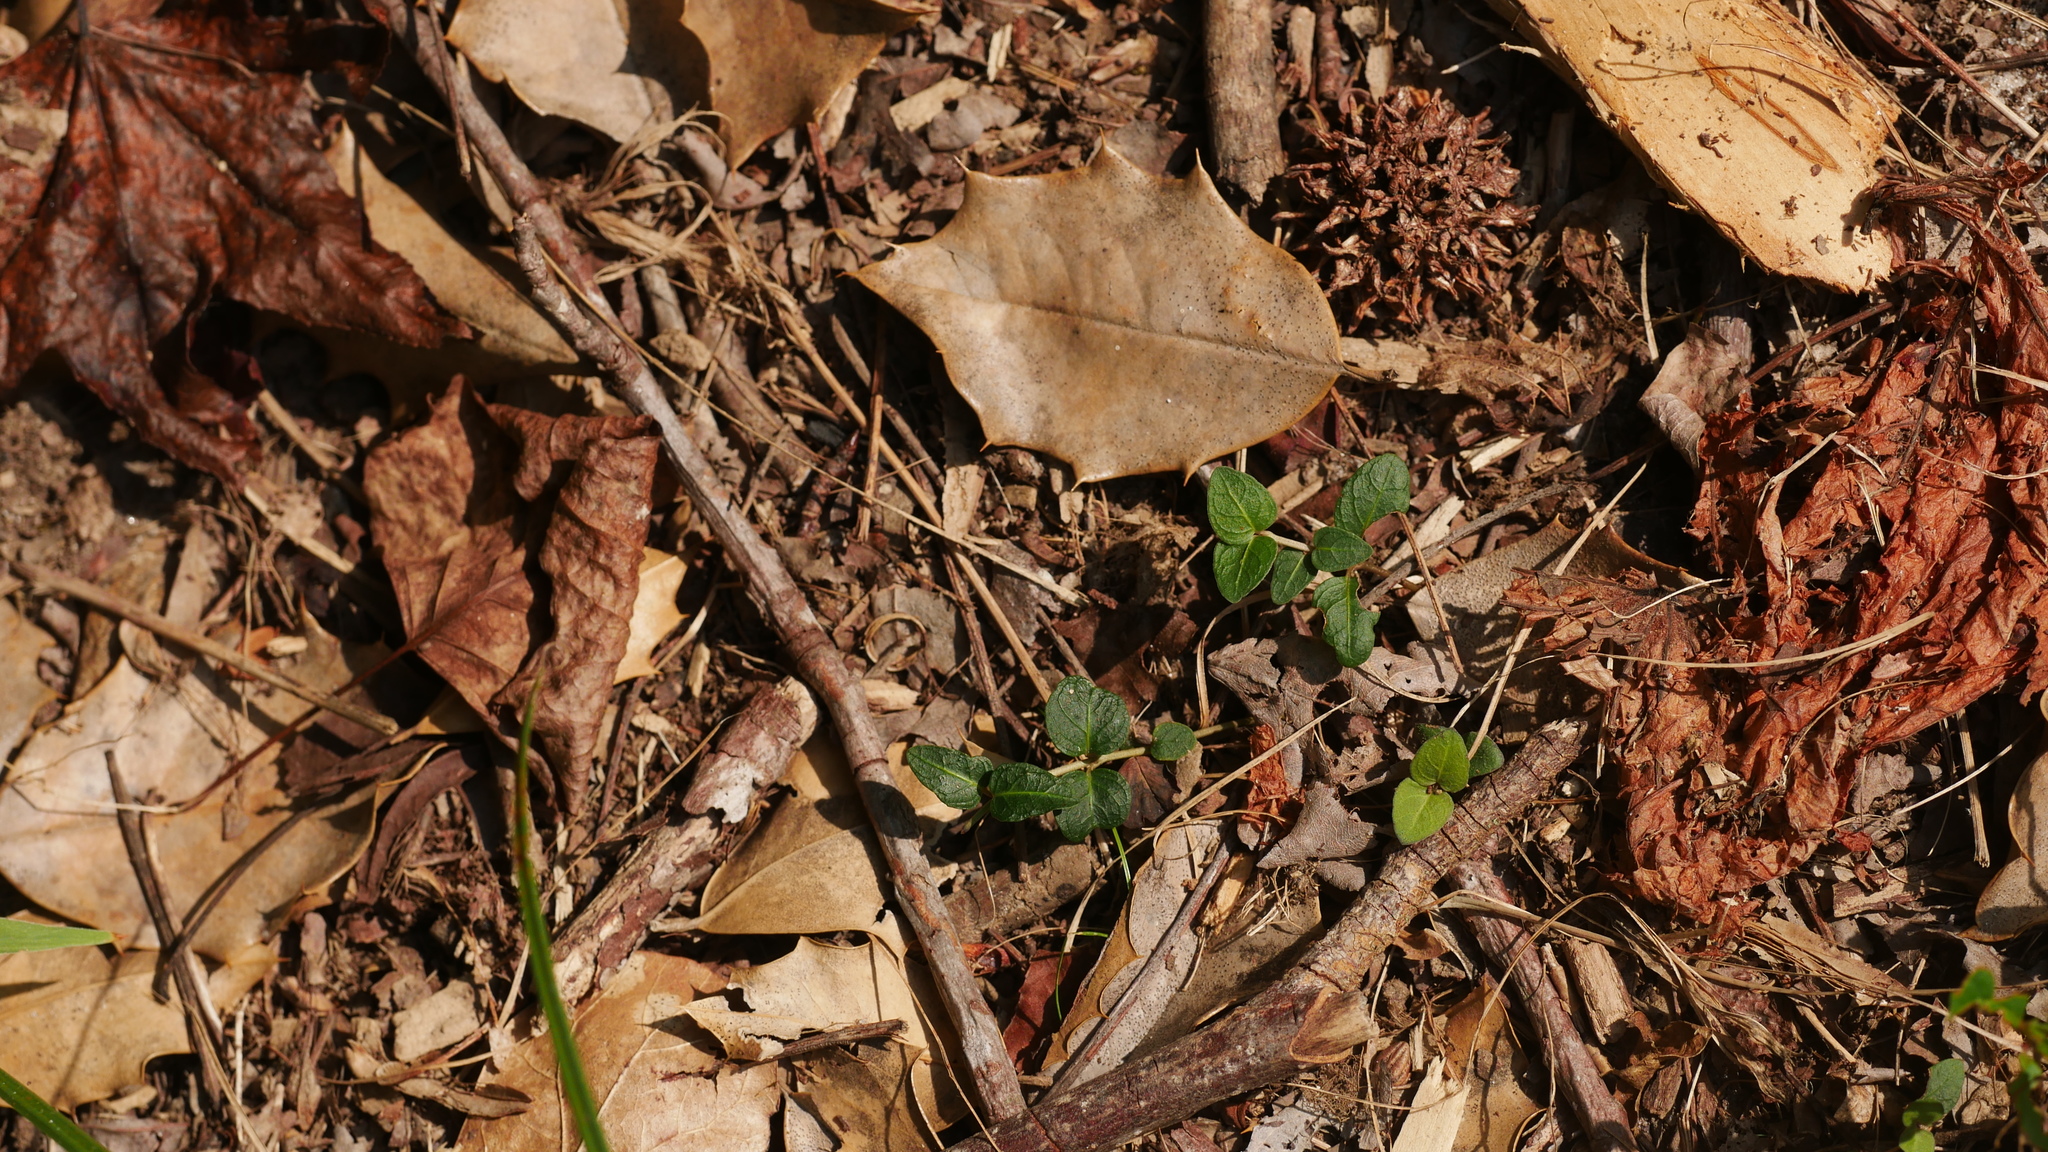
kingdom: Plantae
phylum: Tracheophyta
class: Magnoliopsida
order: Gentianales
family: Rubiaceae
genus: Mitchella
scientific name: Mitchella repens
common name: Partridge-berry
